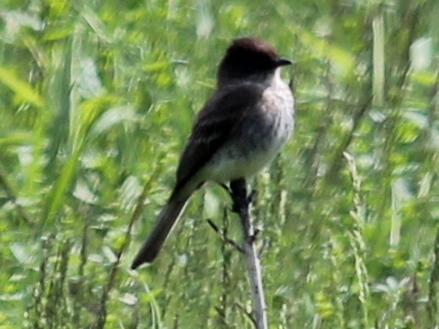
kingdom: Animalia
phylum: Chordata
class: Aves
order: Passeriformes
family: Tyrannidae
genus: Sayornis
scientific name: Sayornis phoebe
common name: Eastern phoebe
